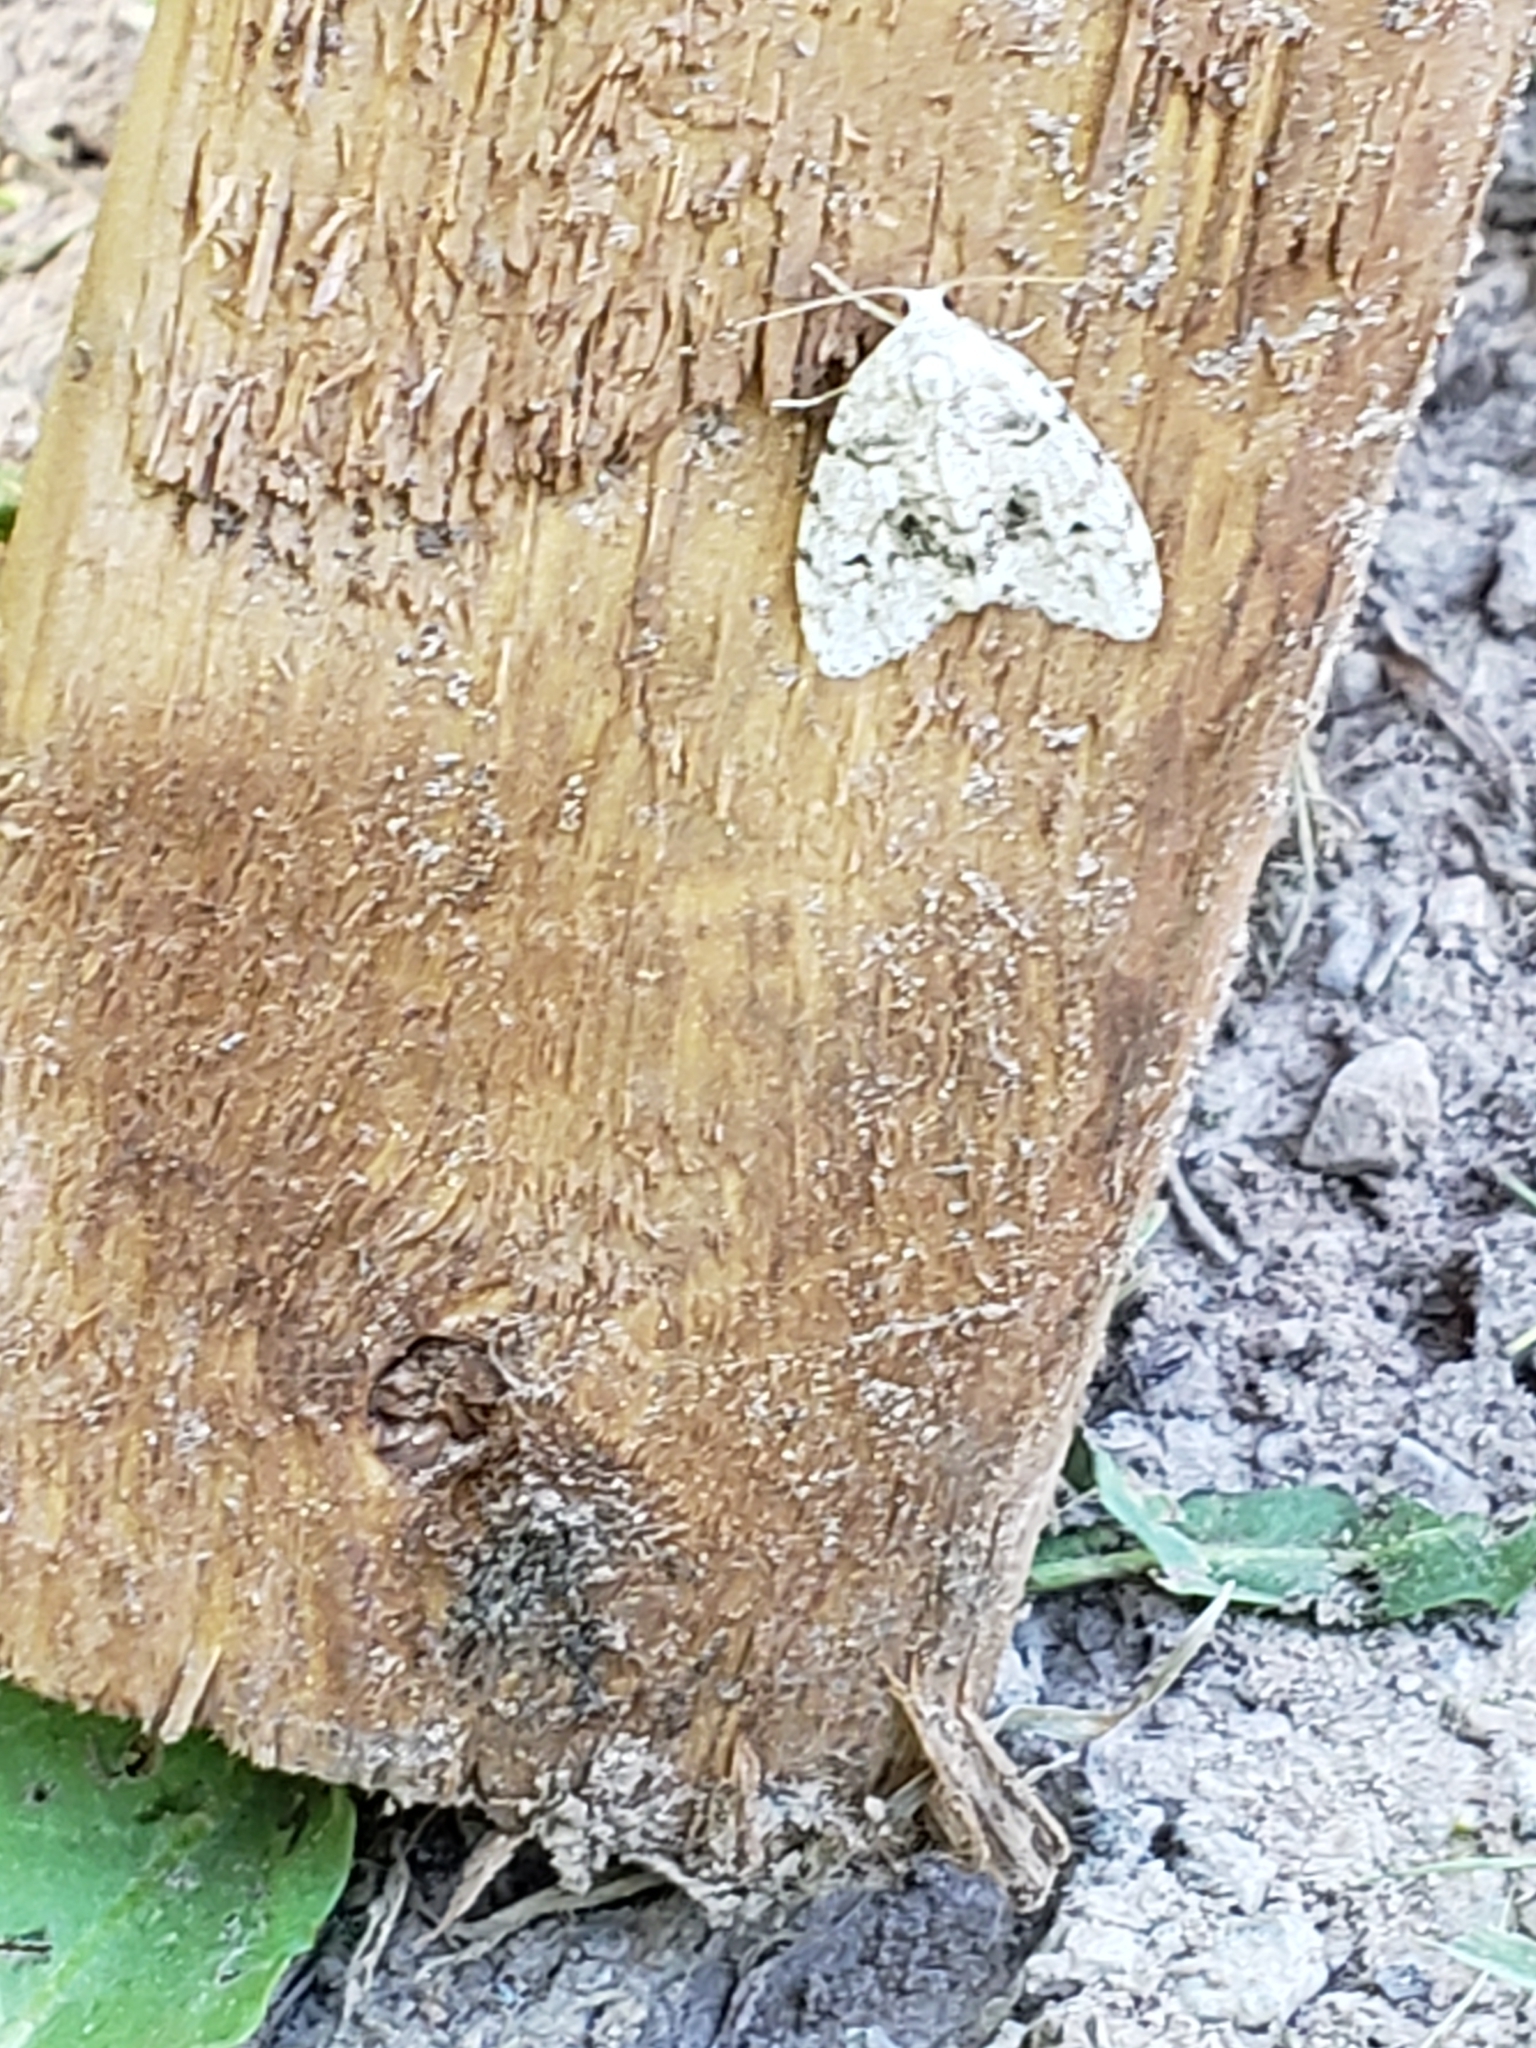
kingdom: Animalia
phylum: Arthropoda
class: Insecta
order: Lepidoptera
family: Erebidae
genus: Clemensia
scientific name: Clemensia albata
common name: Little white lichen moth
